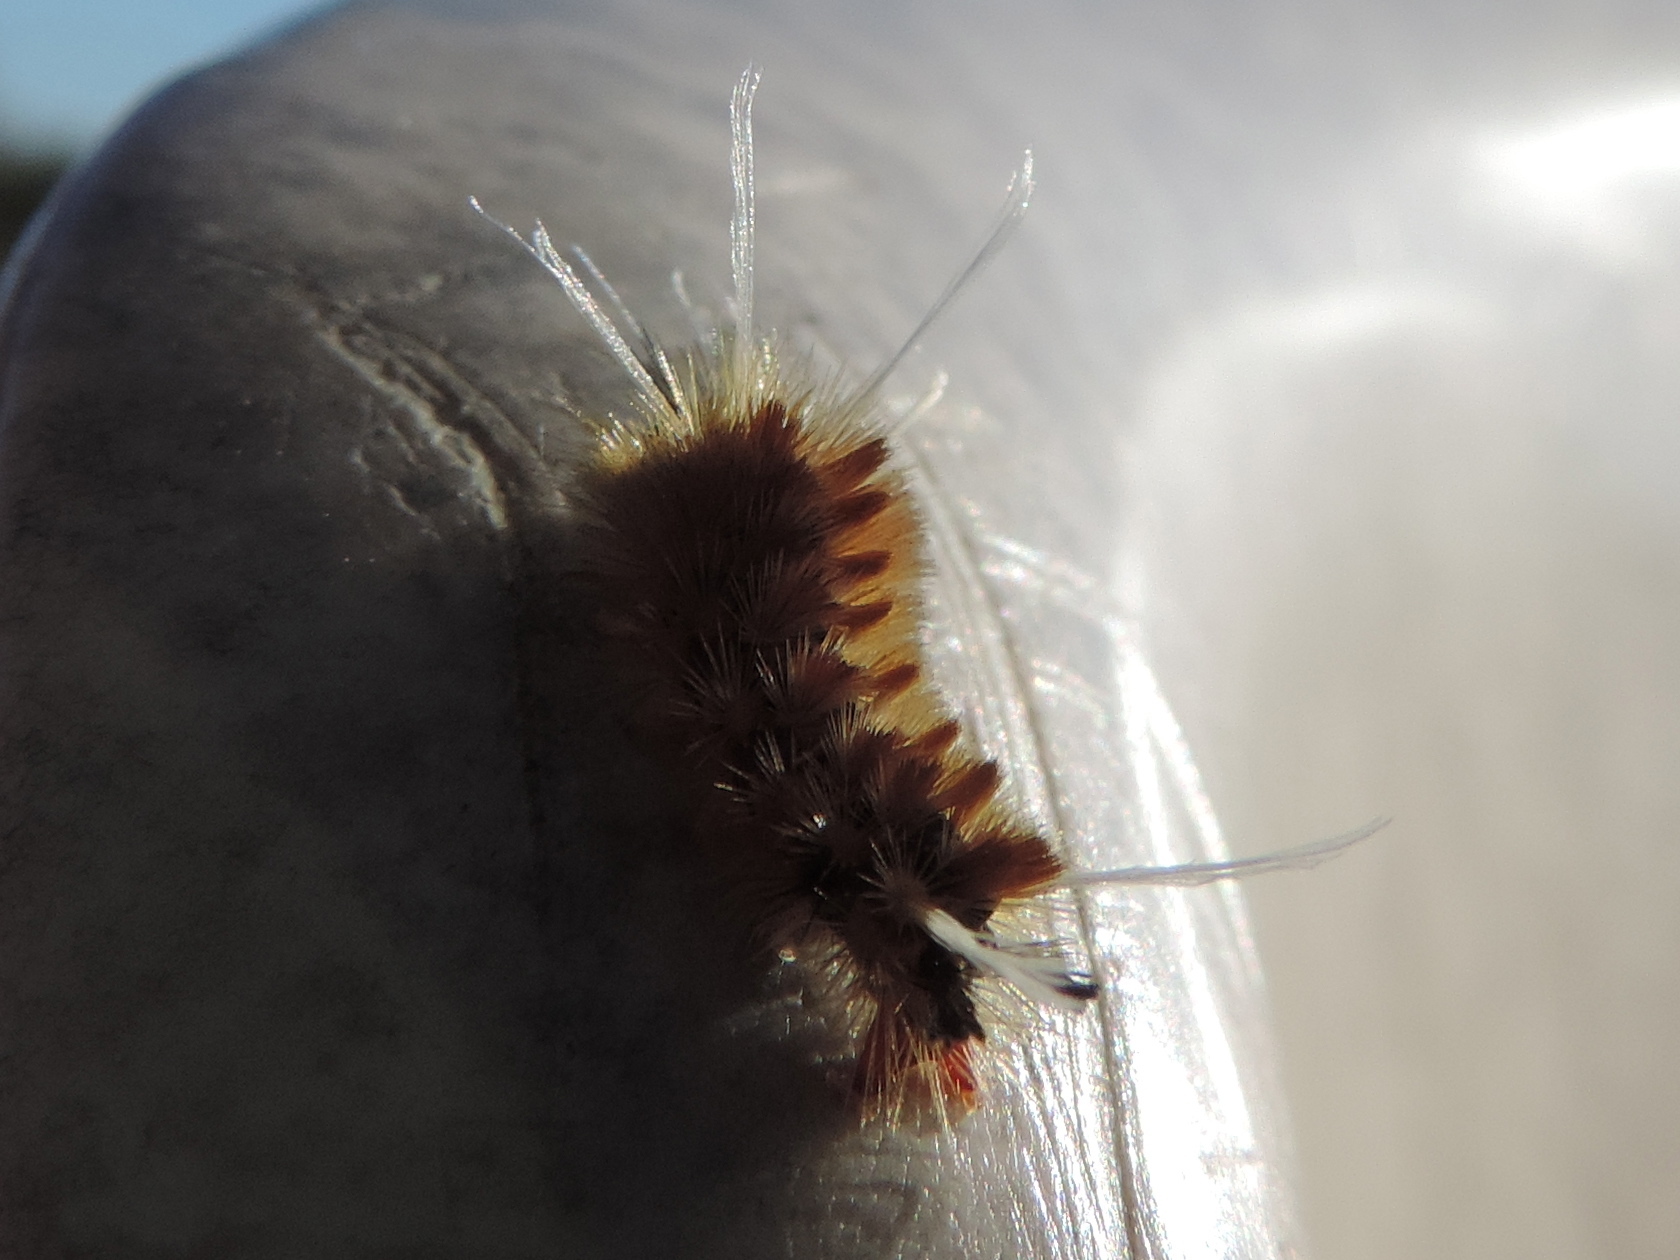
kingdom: Animalia
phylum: Arthropoda
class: Insecta
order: Lepidoptera
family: Erebidae
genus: Lophocampa
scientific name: Lophocampa annulosa
